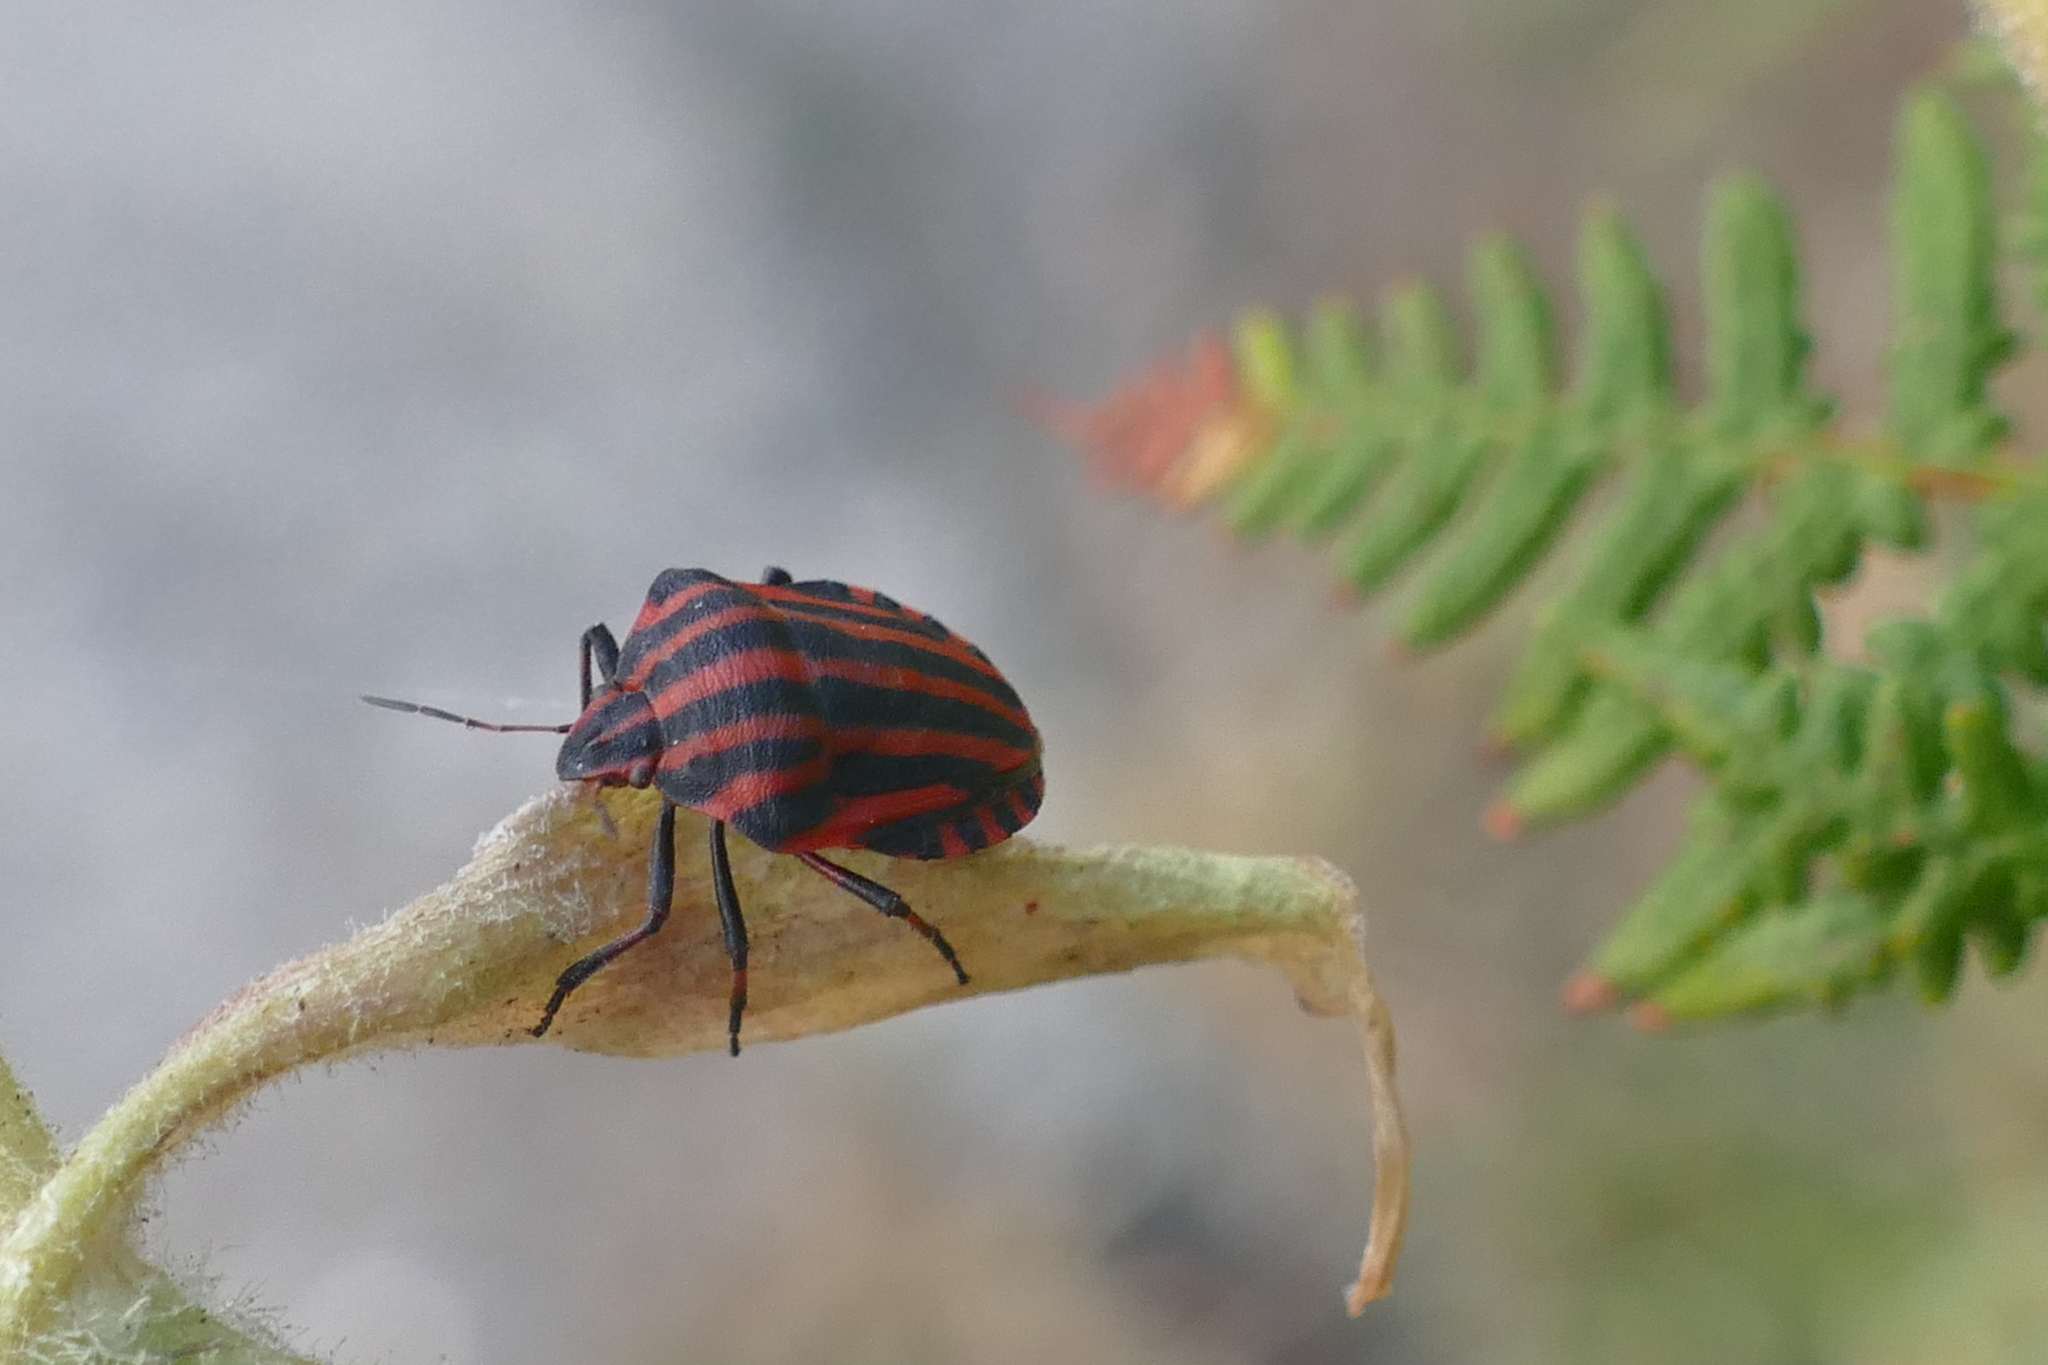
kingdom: Animalia
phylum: Arthropoda
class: Insecta
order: Hemiptera
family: Pentatomidae
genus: Graphosoma
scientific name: Graphosoma italicum
